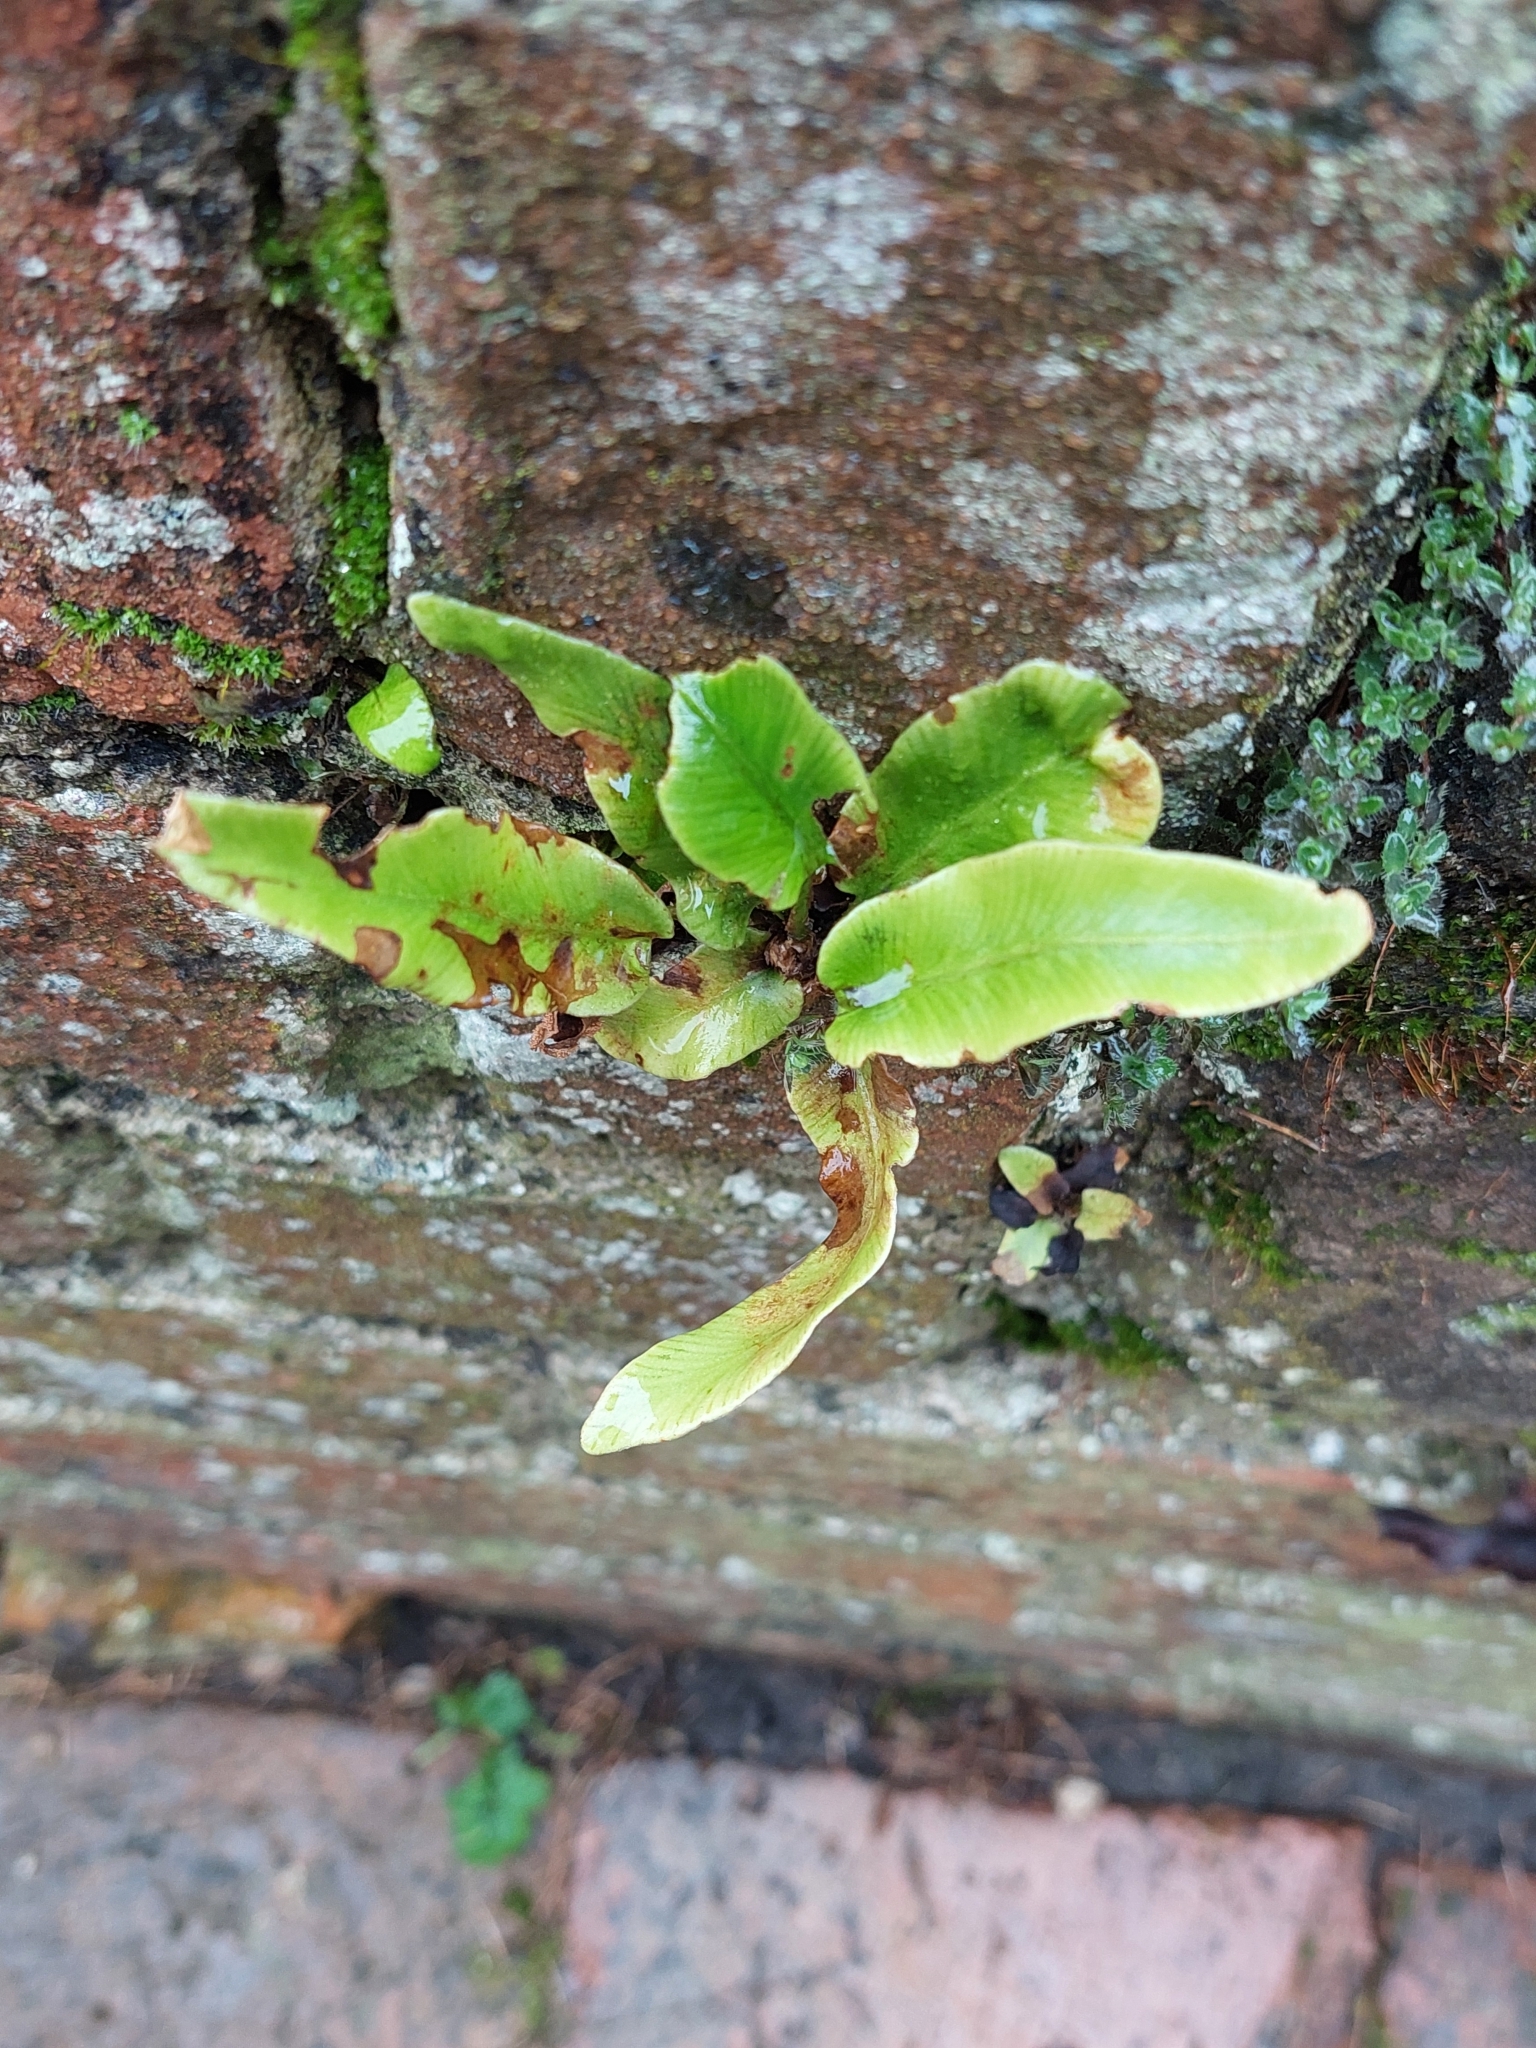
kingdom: Plantae
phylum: Tracheophyta
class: Polypodiopsida
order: Polypodiales
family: Aspleniaceae
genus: Asplenium
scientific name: Asplenium scolopendrium
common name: Hart's-tongue fern
